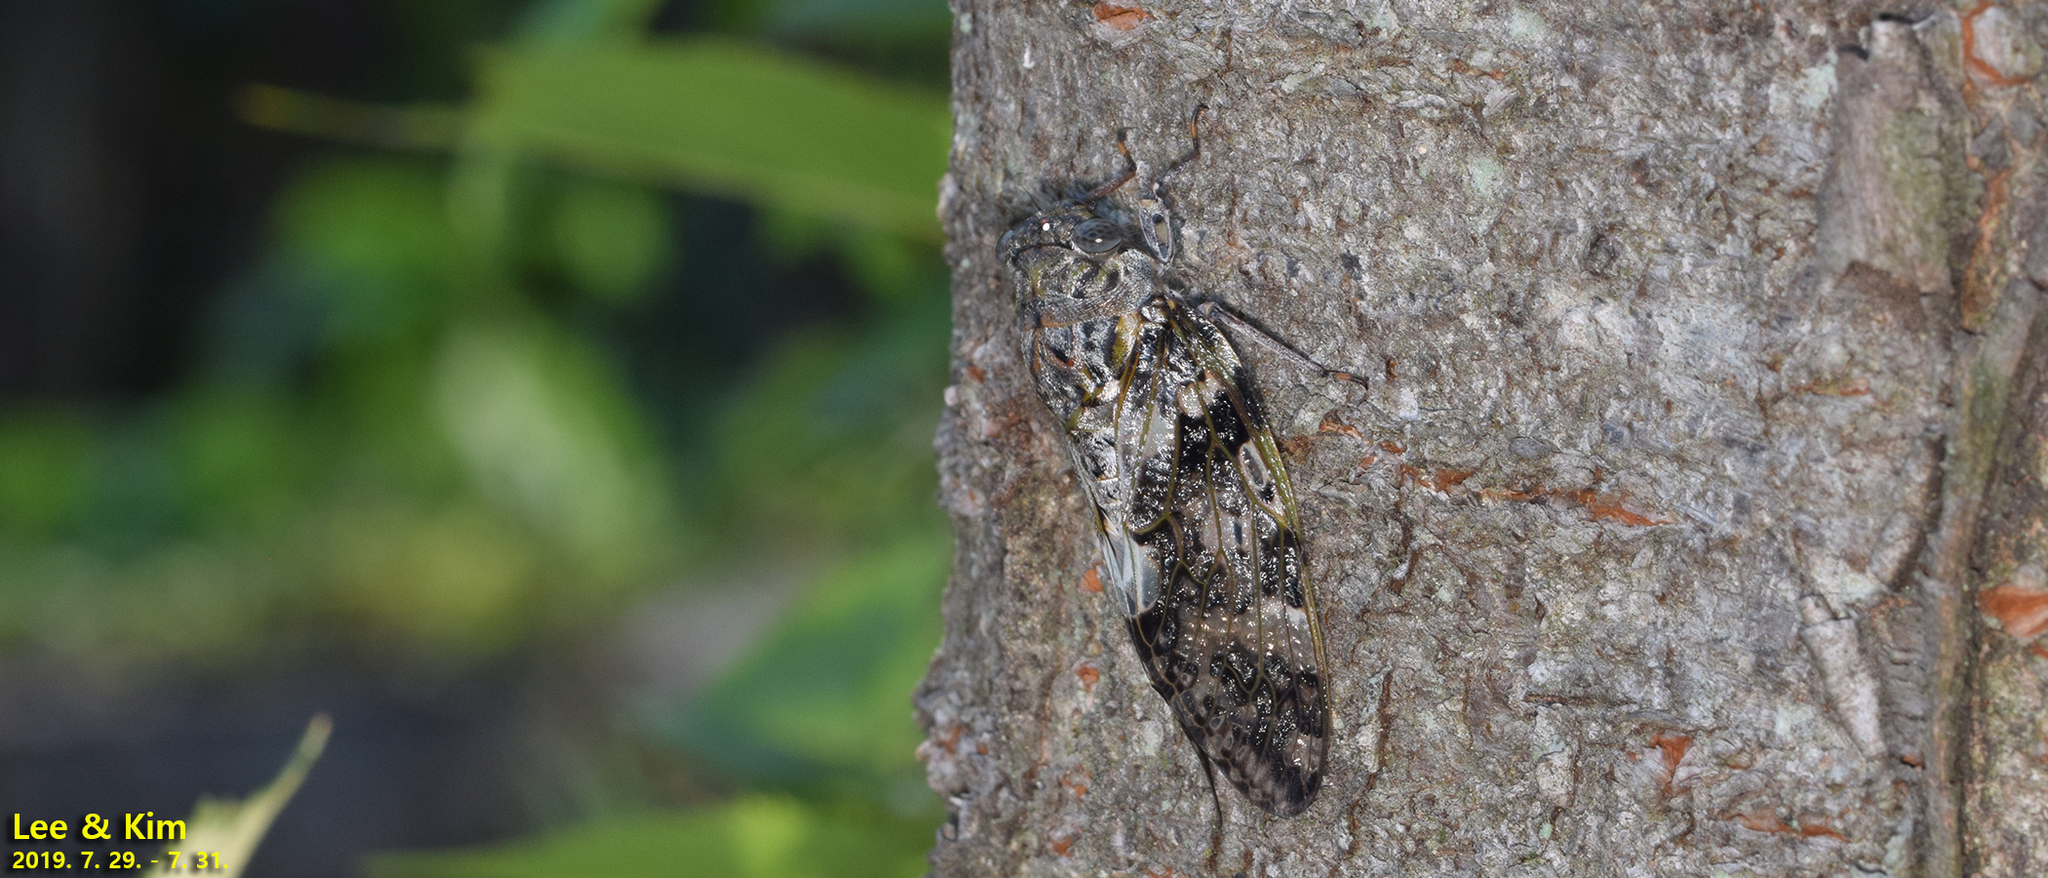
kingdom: Animalia
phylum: Arthropoda
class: Insecta
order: Hemiptera
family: Cicadidae
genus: Platypleura
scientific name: Platypleura kaempferi
